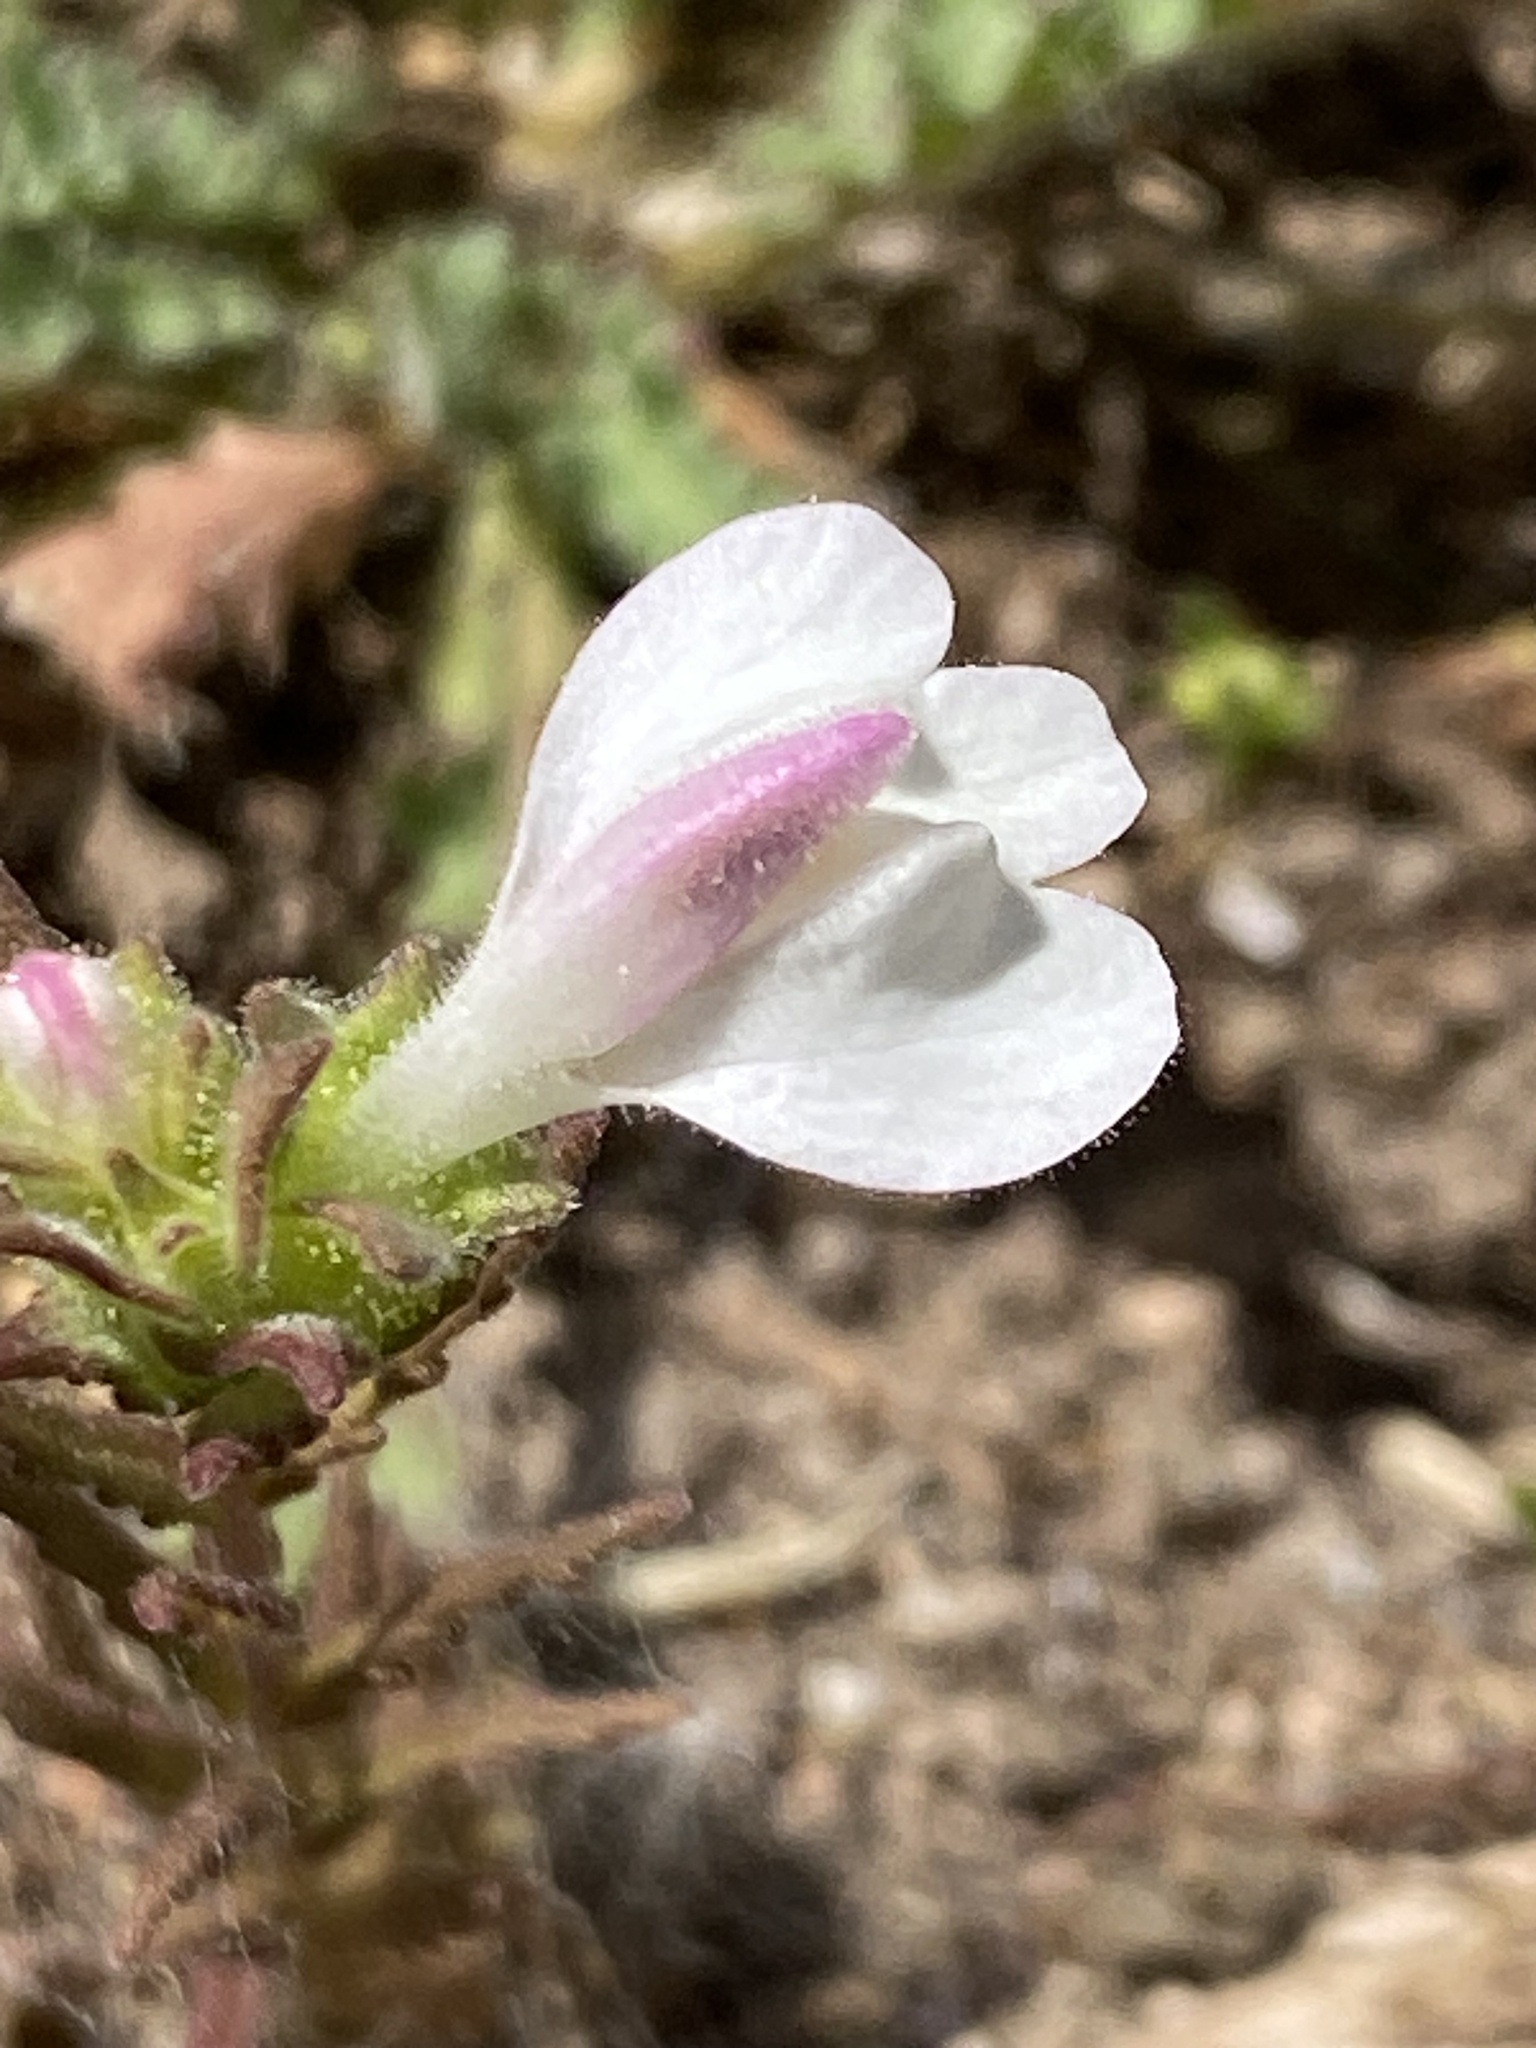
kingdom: Plantae
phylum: Tracheophyta
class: Magnoliopsida
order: Lamiales
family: Orobanchaceae
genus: Bellardia
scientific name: Bellardia trixago
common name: Mediterranean lineseed
